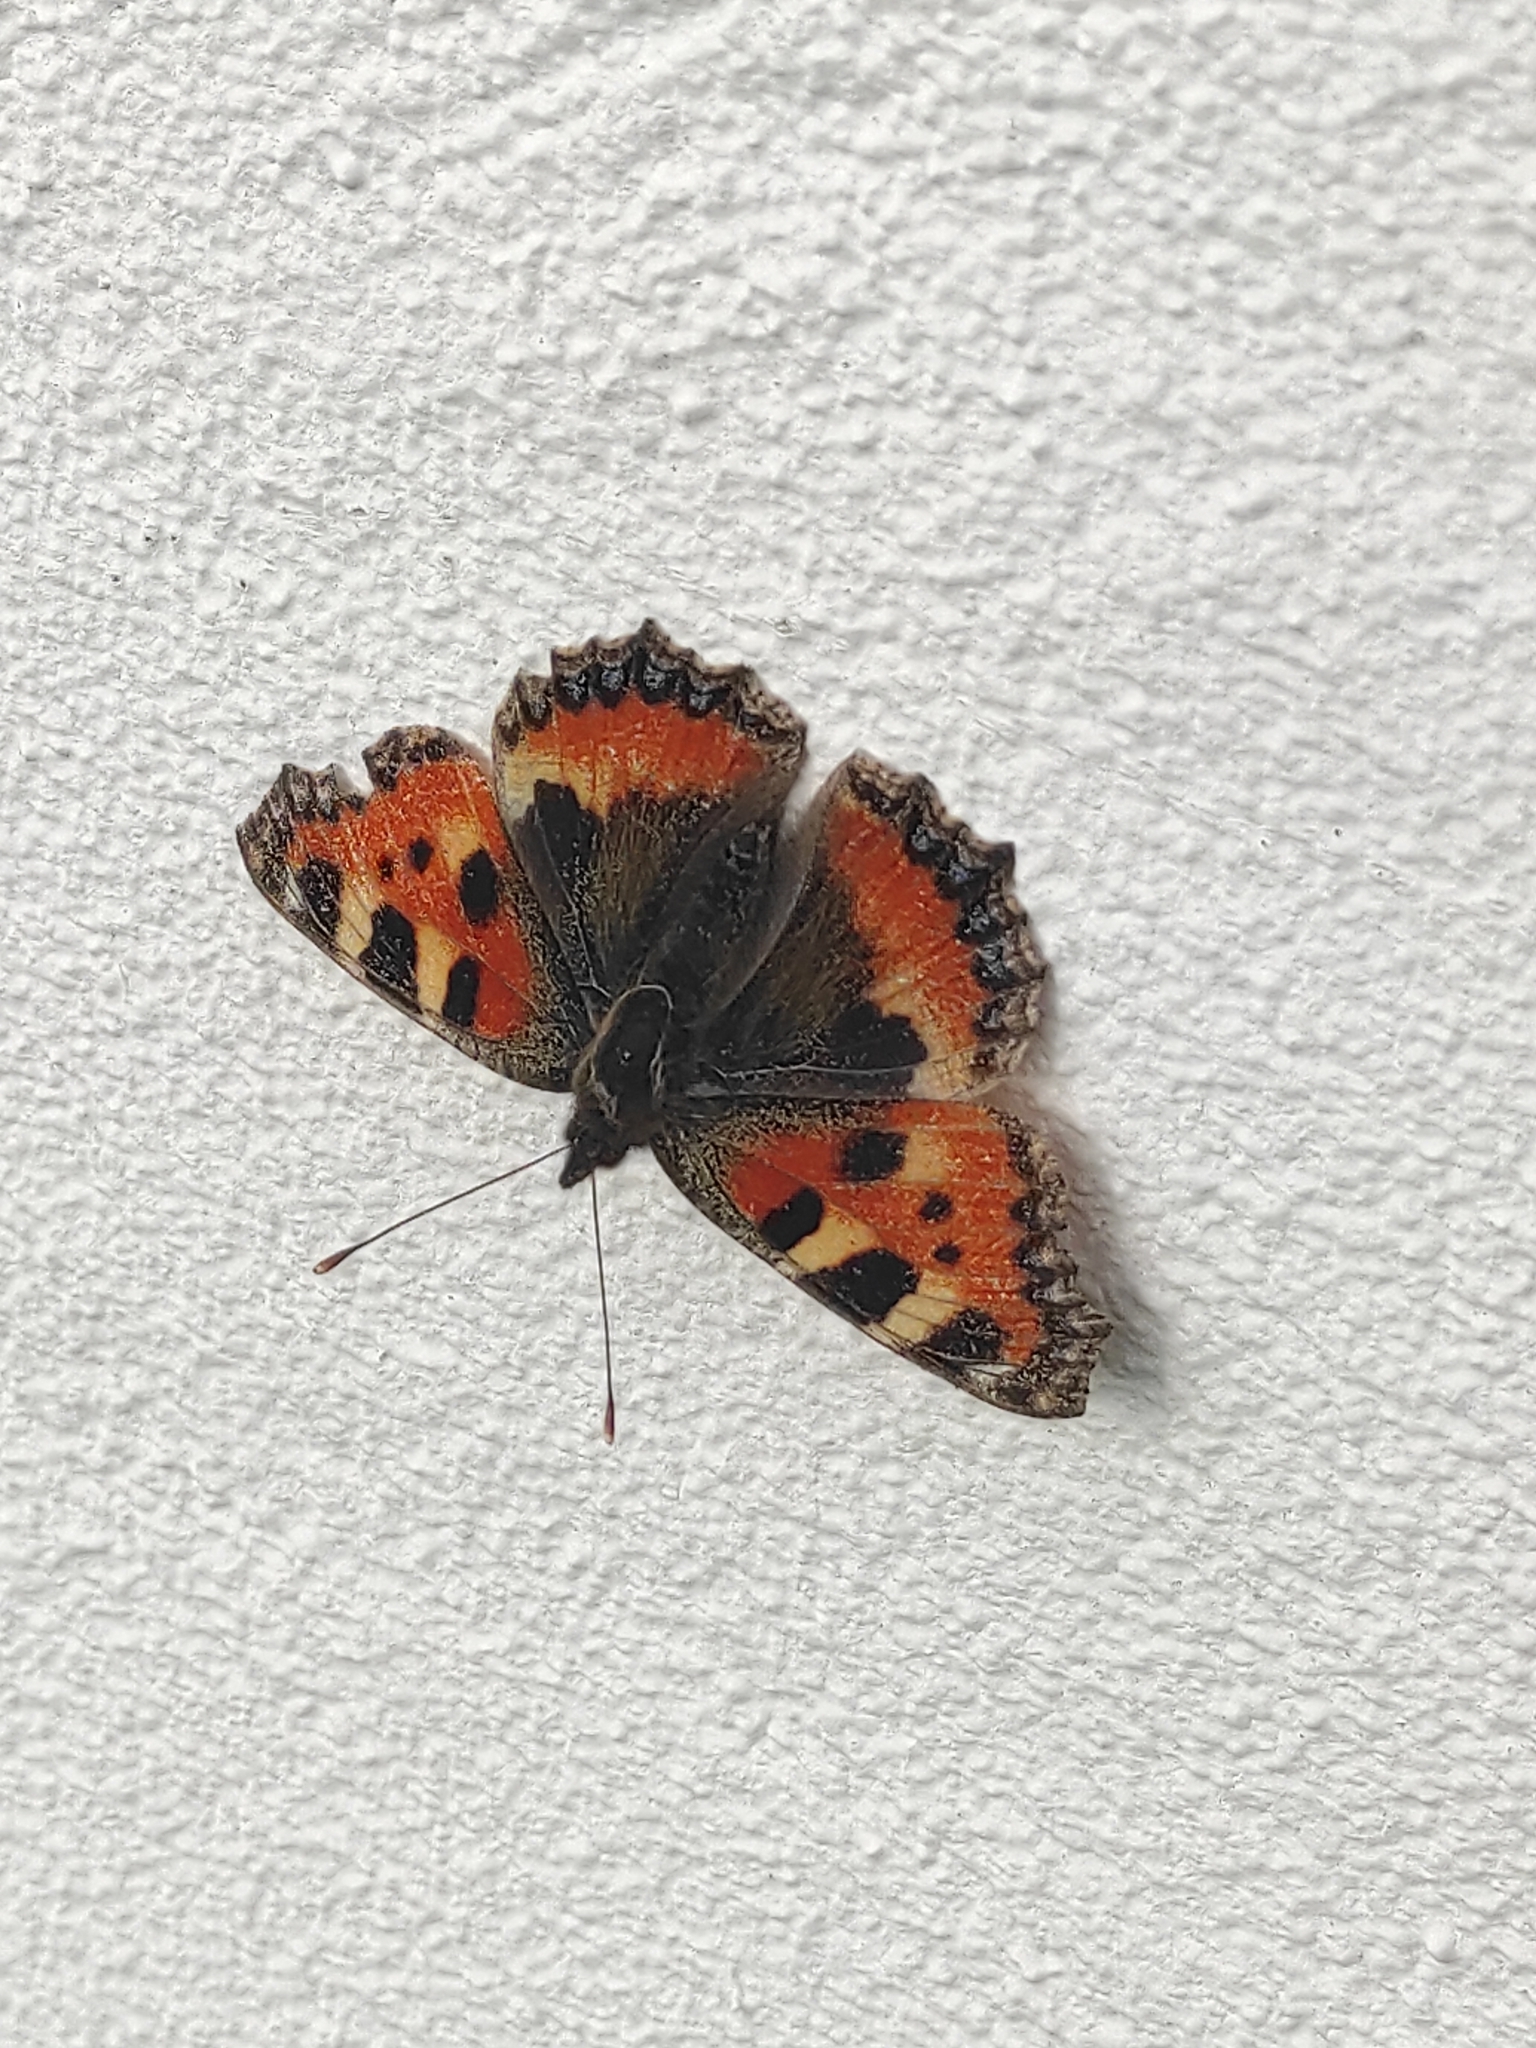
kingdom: Animalia
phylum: Arthropoda
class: Insecta
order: Lepidoptera
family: Nymphalidae
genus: Aglais
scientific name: Aglais urticae
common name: Small tortoiseshell
